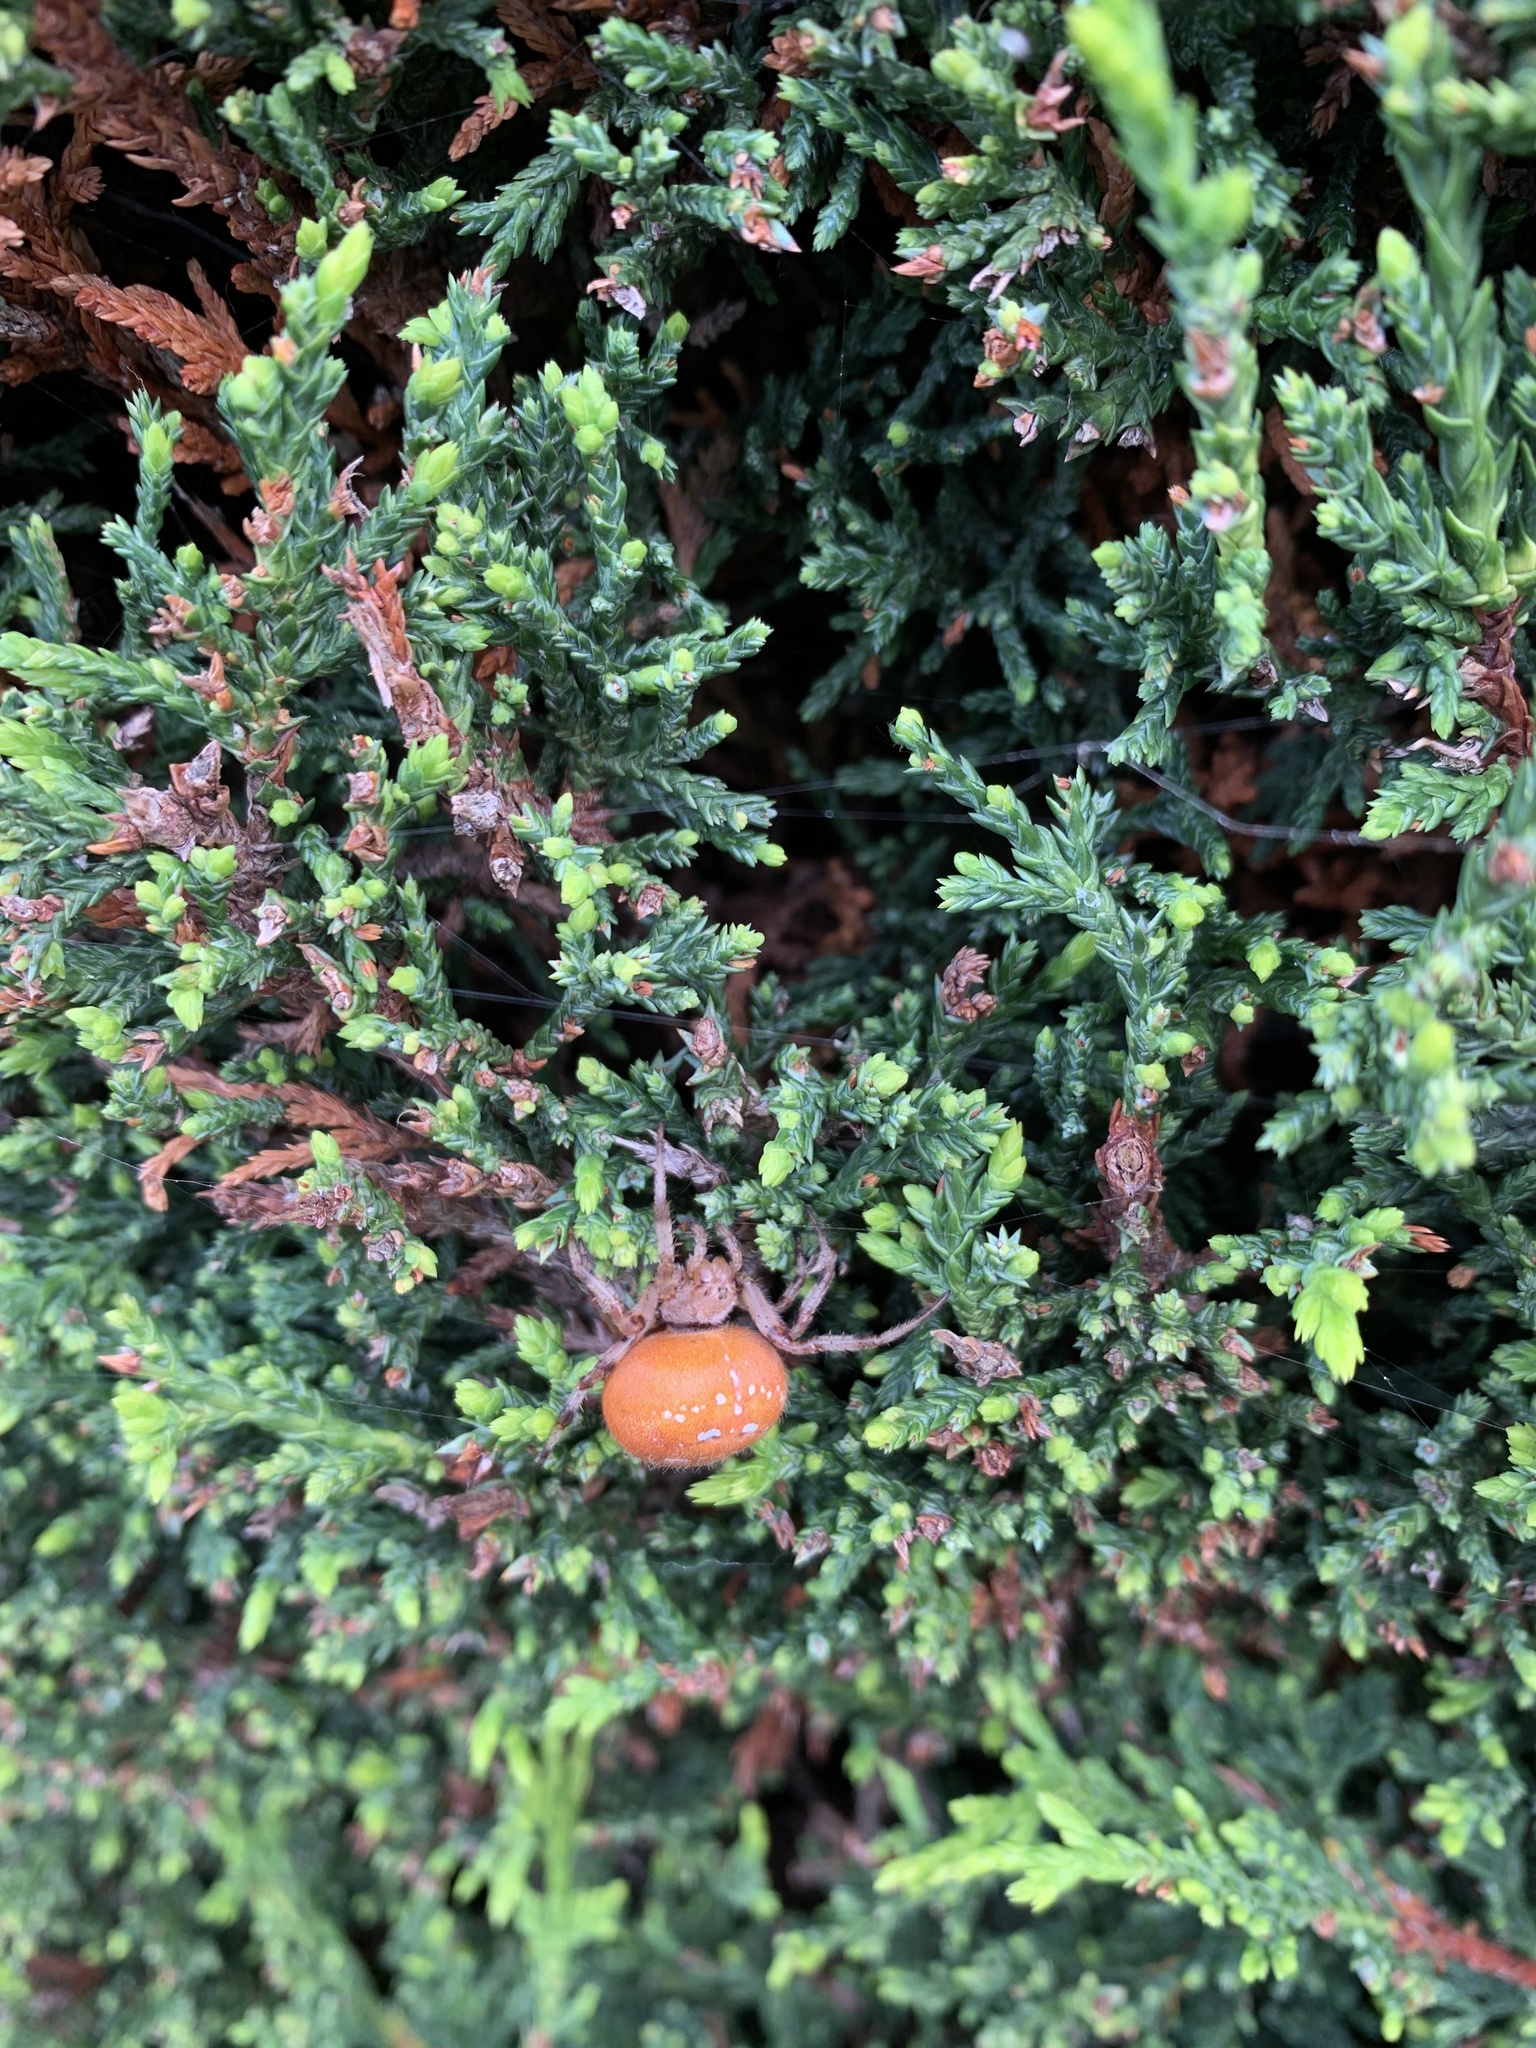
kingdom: Animalia
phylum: Arthropoda
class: Arachnida
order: Araneae
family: Araneidae
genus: Araneus
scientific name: Araneus quadratus
